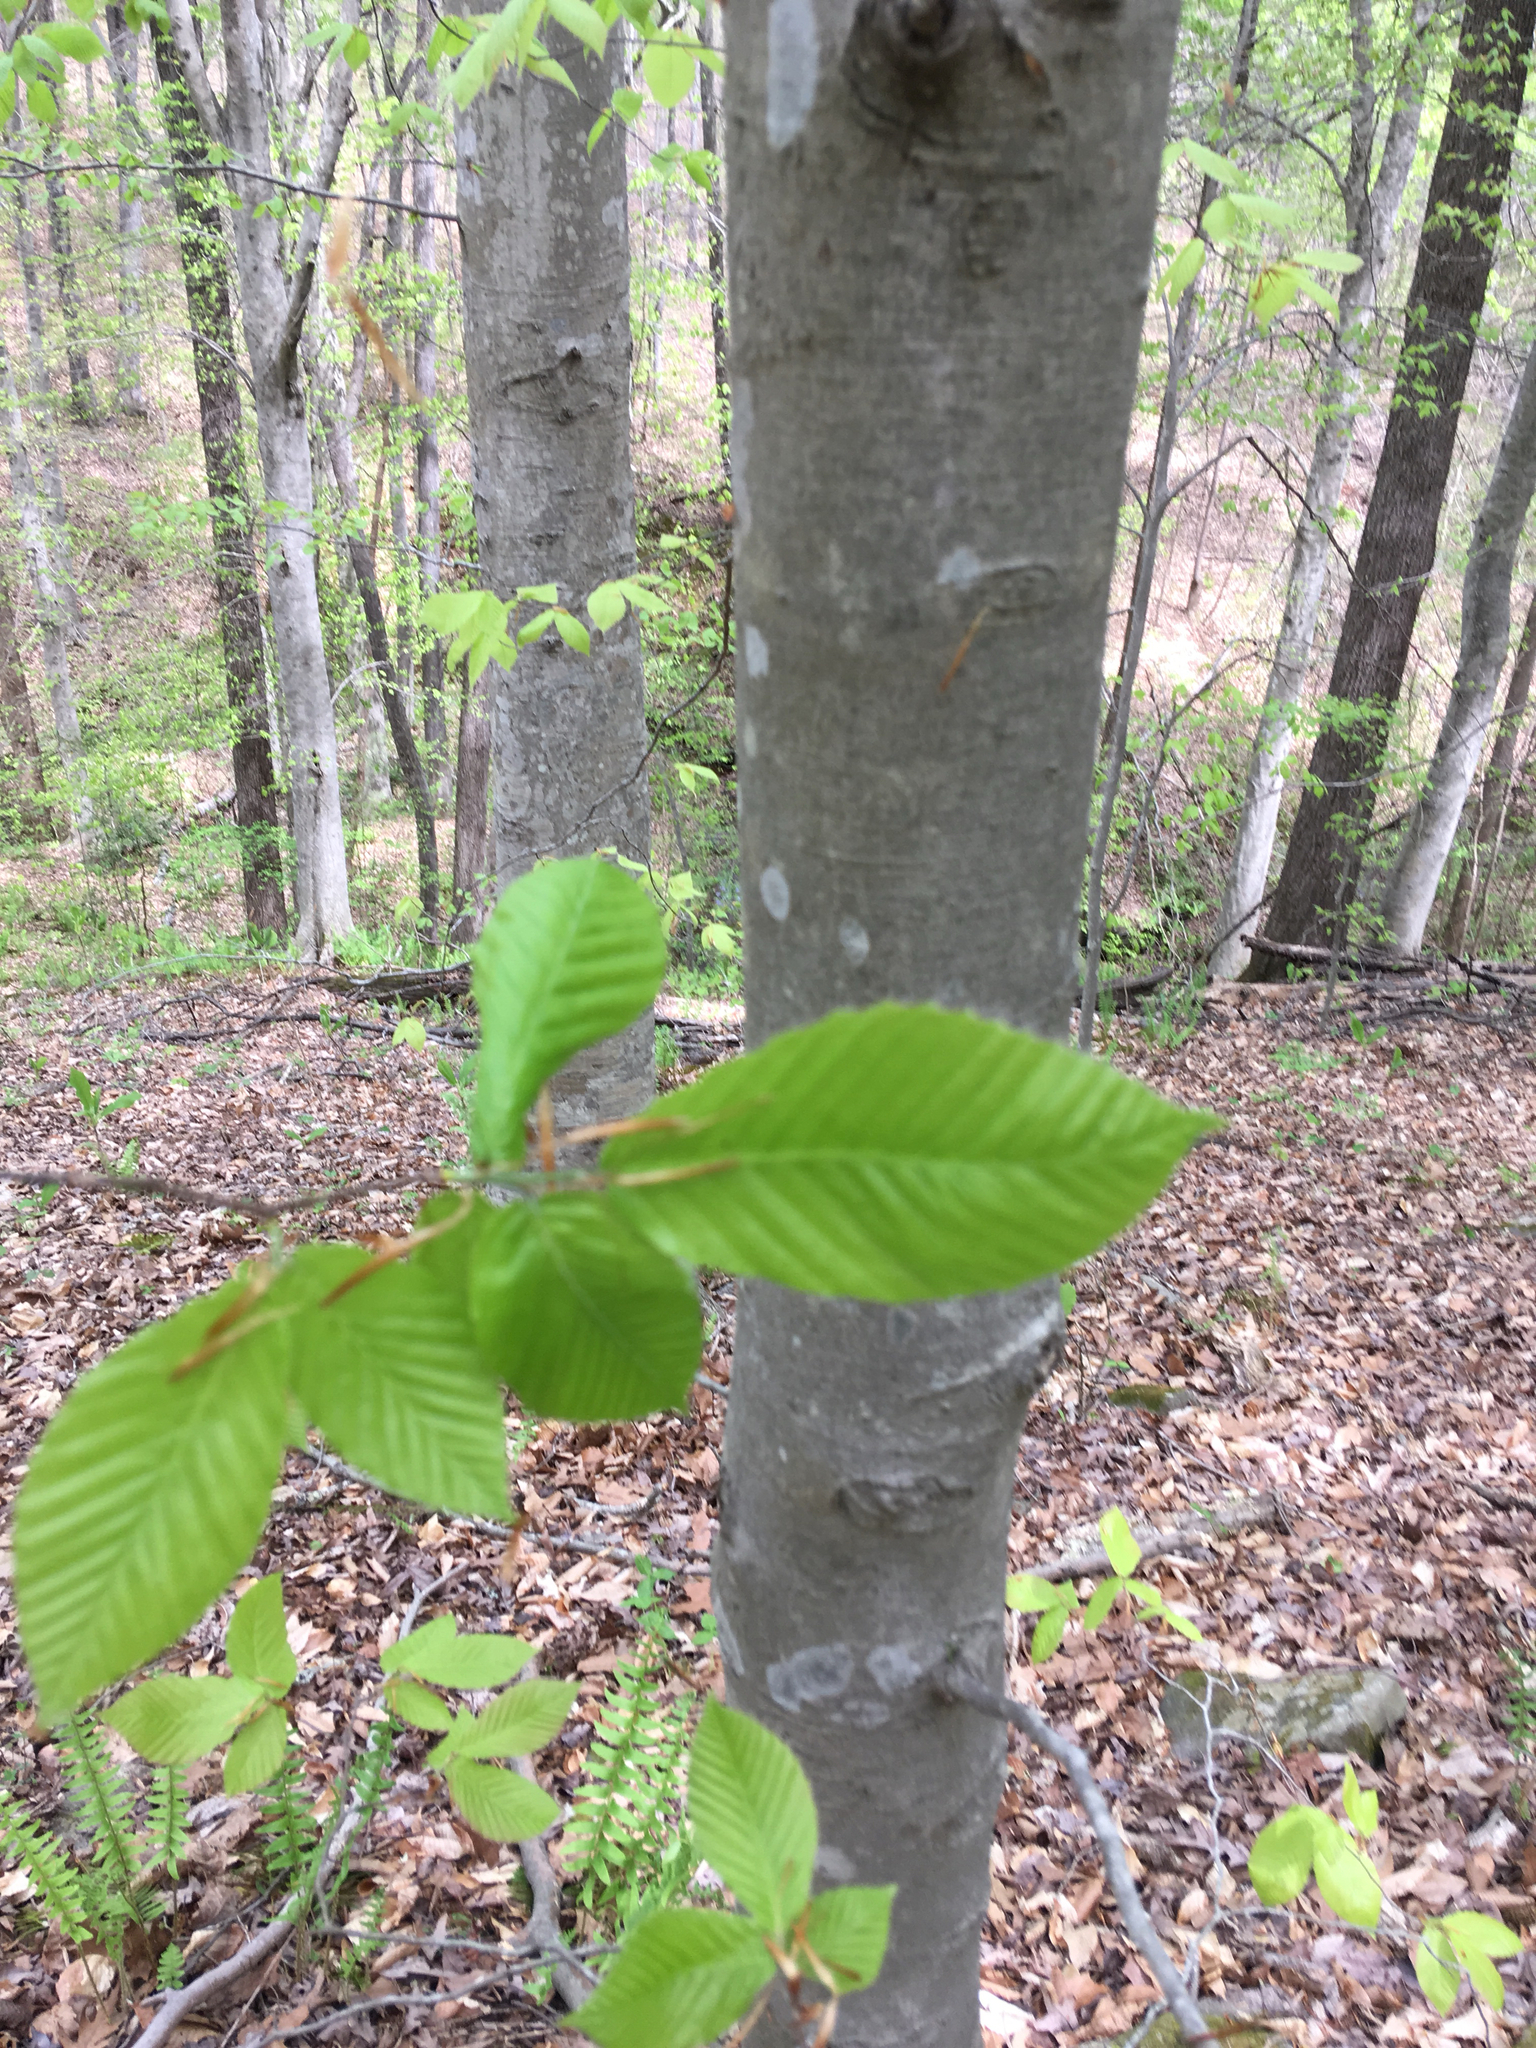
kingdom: Plantae
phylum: Tracheophyta
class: Magnoliopsida
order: Fagales
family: Fagaceae
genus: Fagus
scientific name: Fagus grandifolia
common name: American beech
